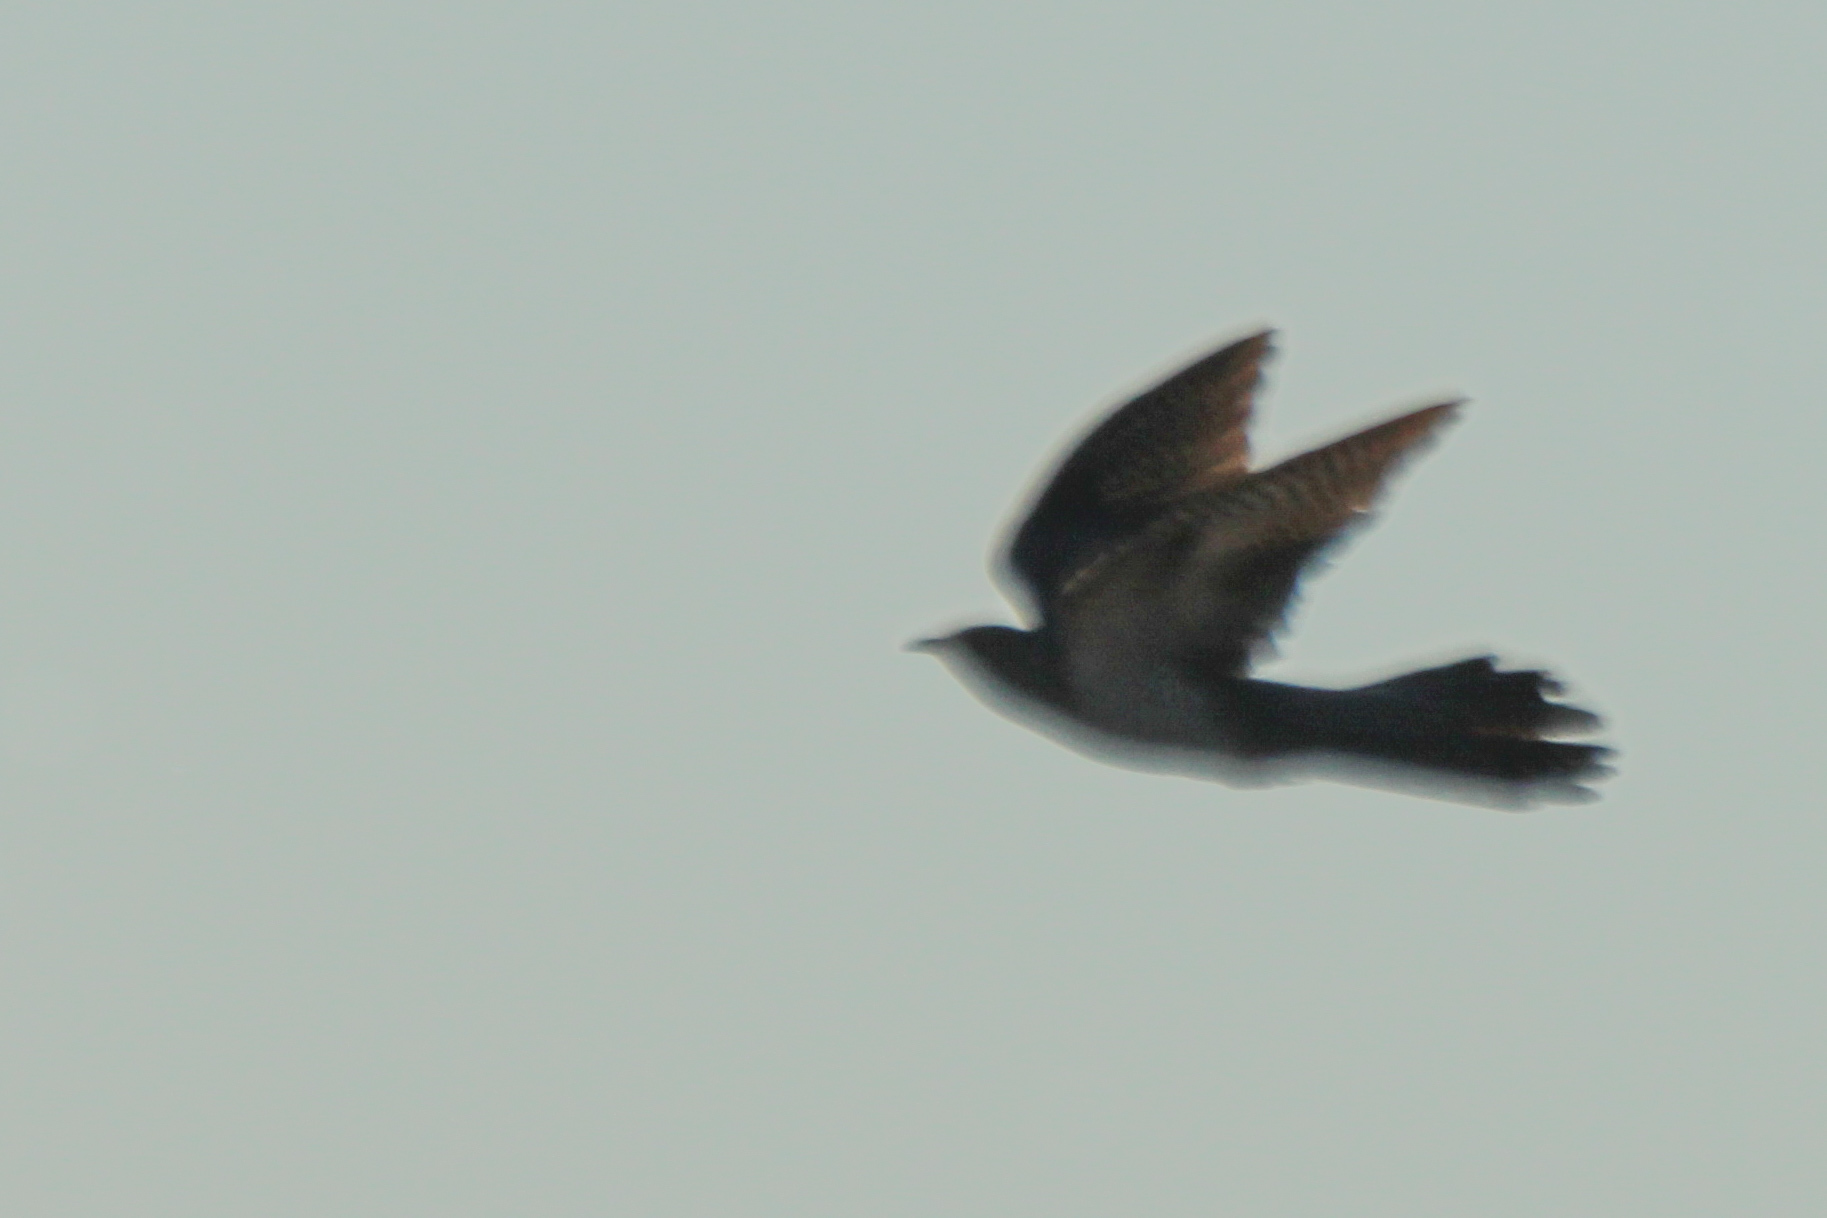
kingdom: Animalia
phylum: Chordata
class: Aves
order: Cuculiformes
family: Cuculidae
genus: Cuculus
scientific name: Cuculus canorus
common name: Common cuckoo
